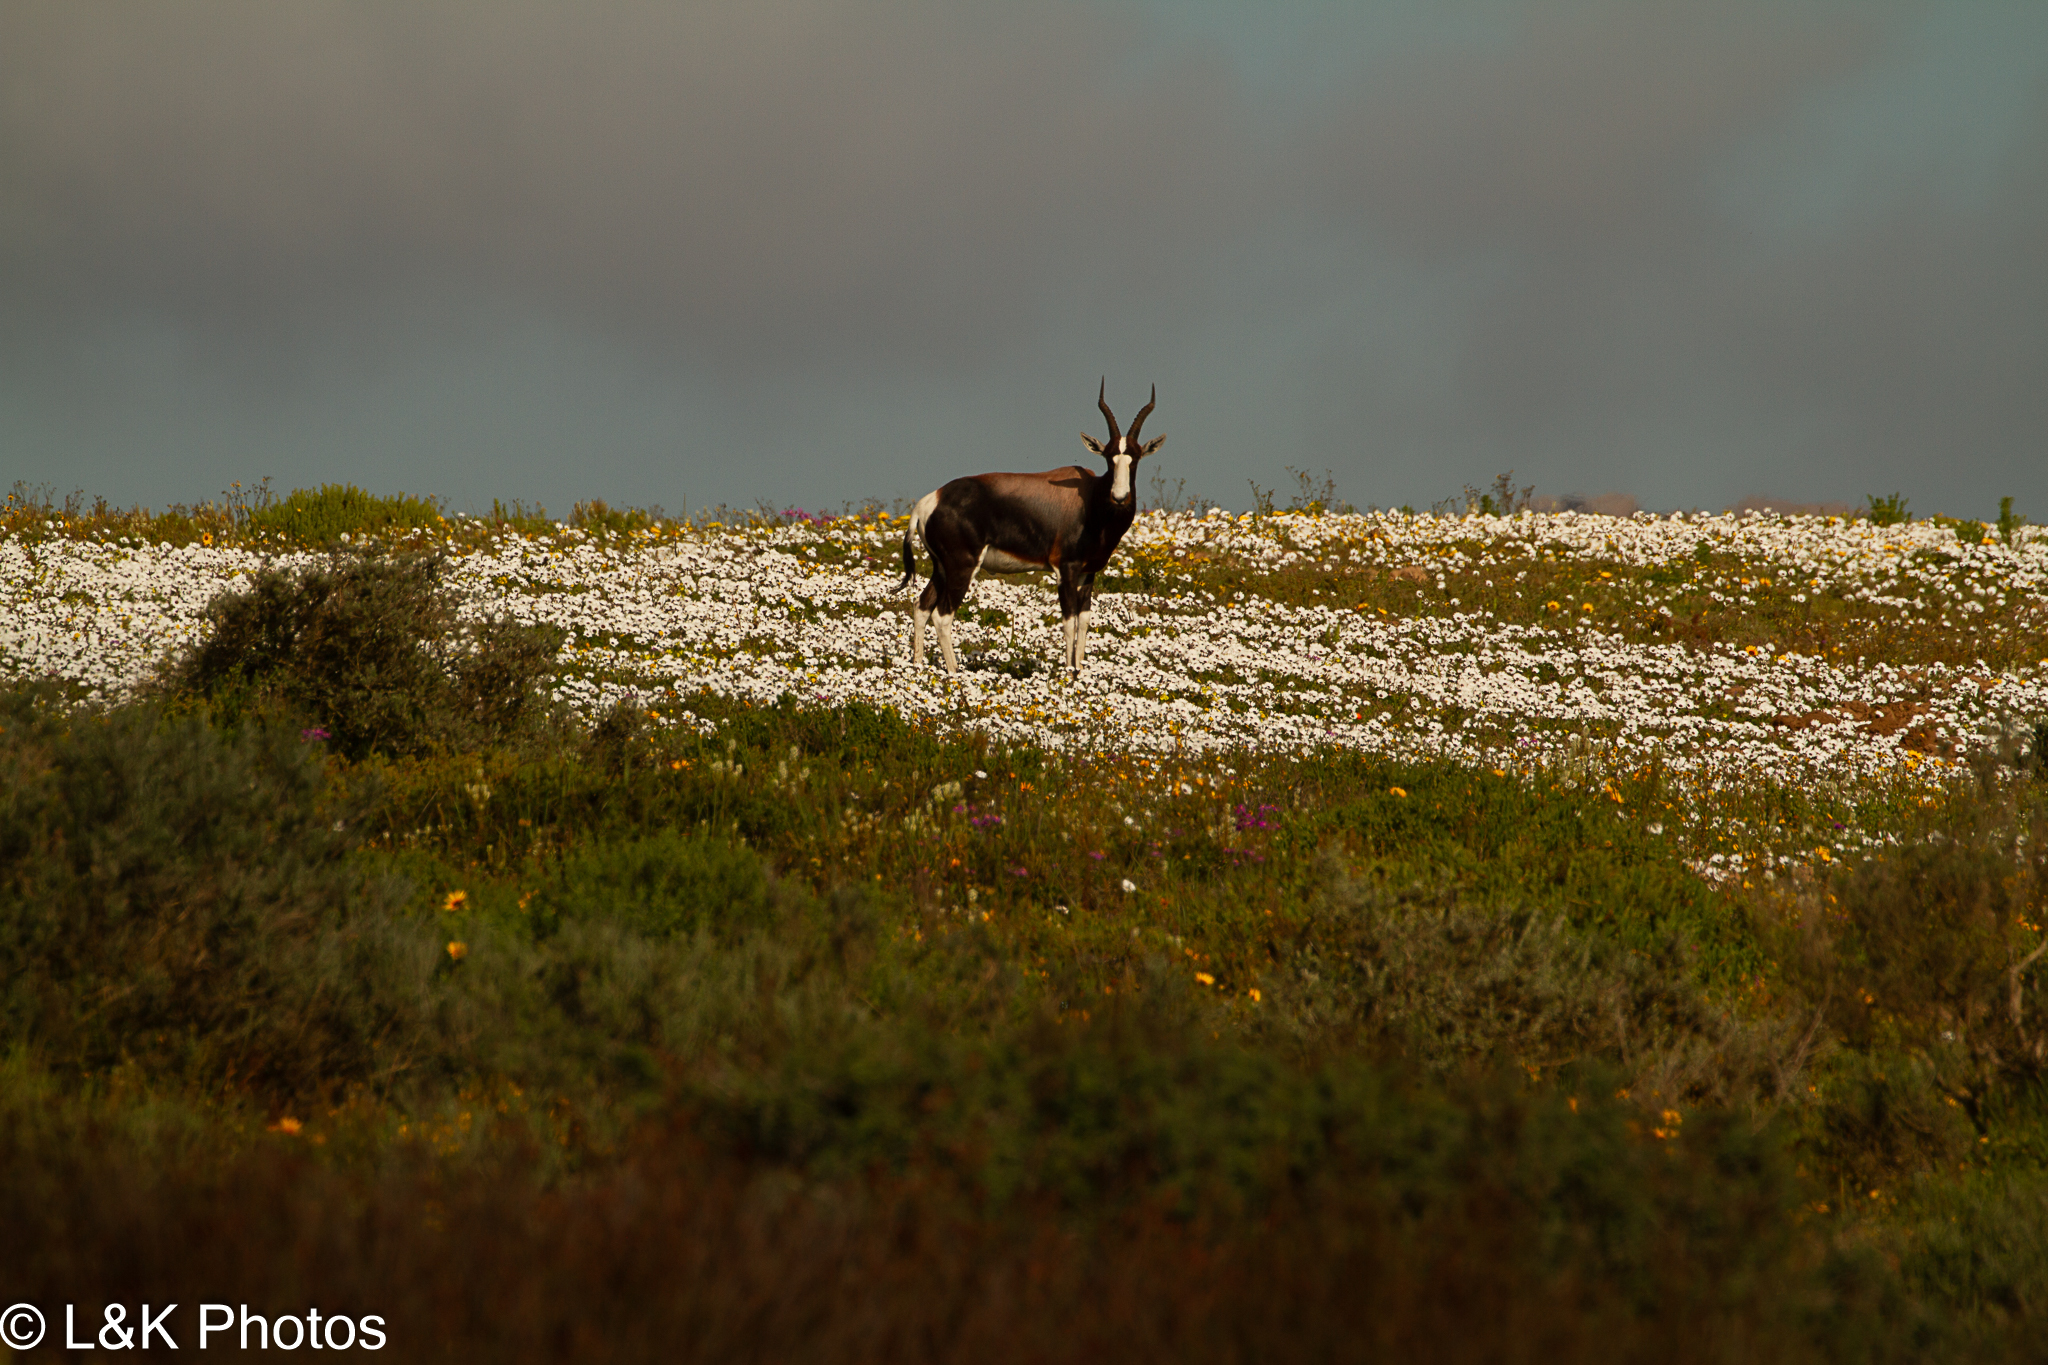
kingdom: Animalia
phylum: Chordata
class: Mammalia
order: Artiodactyla
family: Bovidae
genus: Damaliscus
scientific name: Damaliscus pygargus
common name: Bontebok
